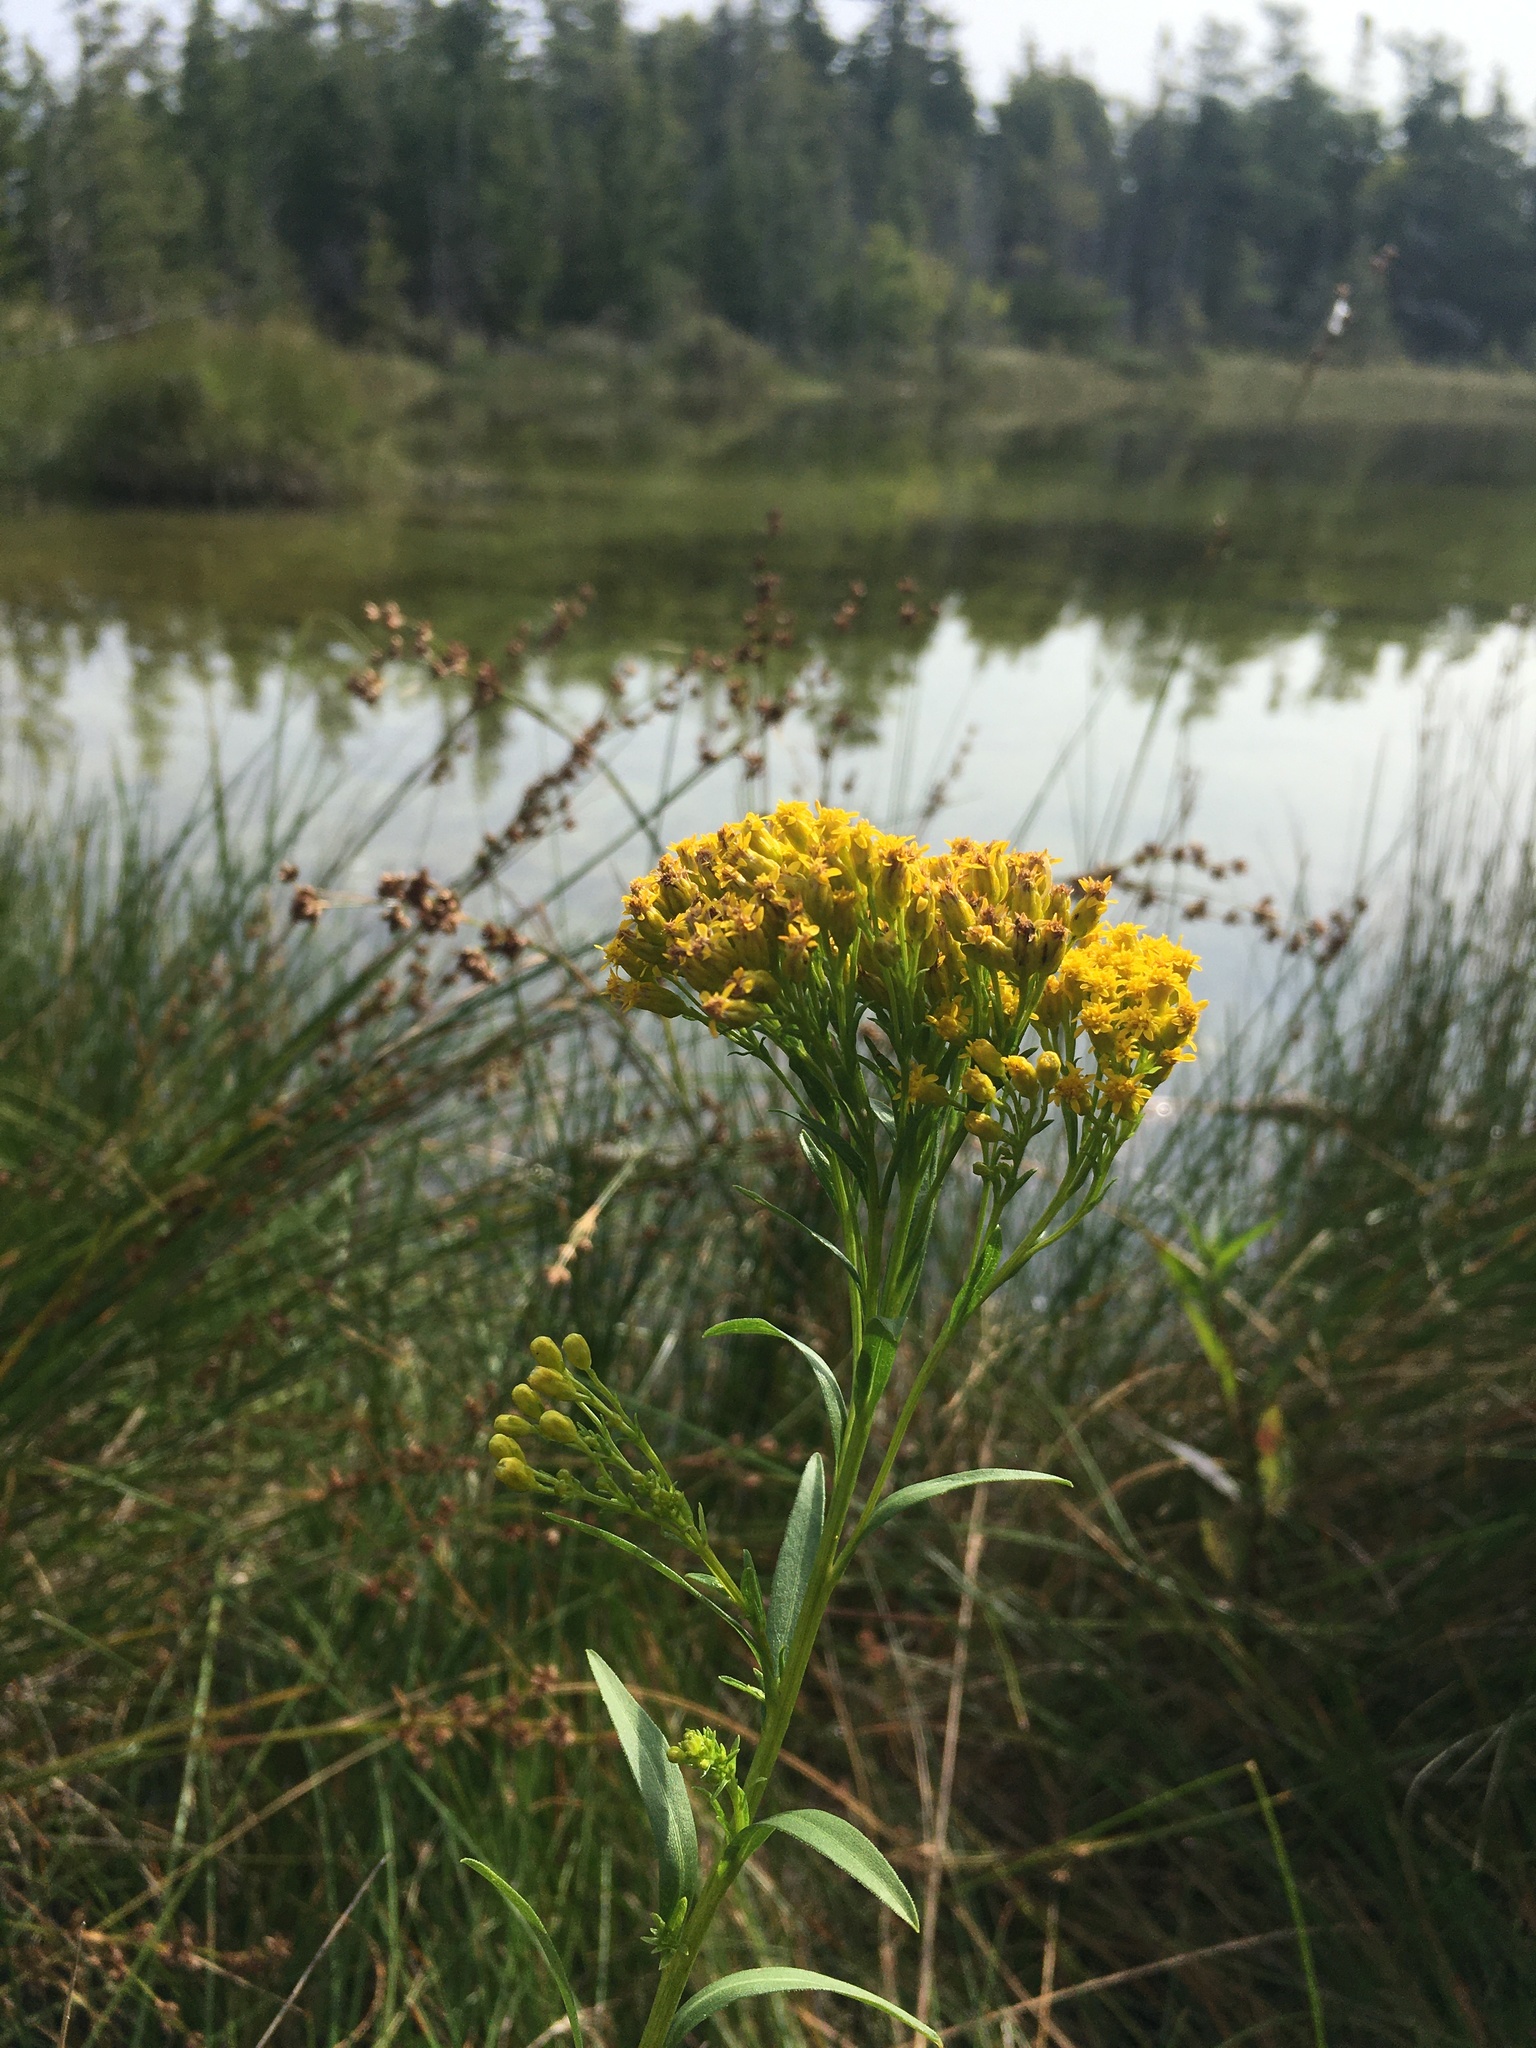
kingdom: Plantae
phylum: Tracheophyta
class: Magnoliopsida
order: Asterales
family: Asteraceae
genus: Solidago
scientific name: Solidago ohioensis
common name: Ohio goldenrod
